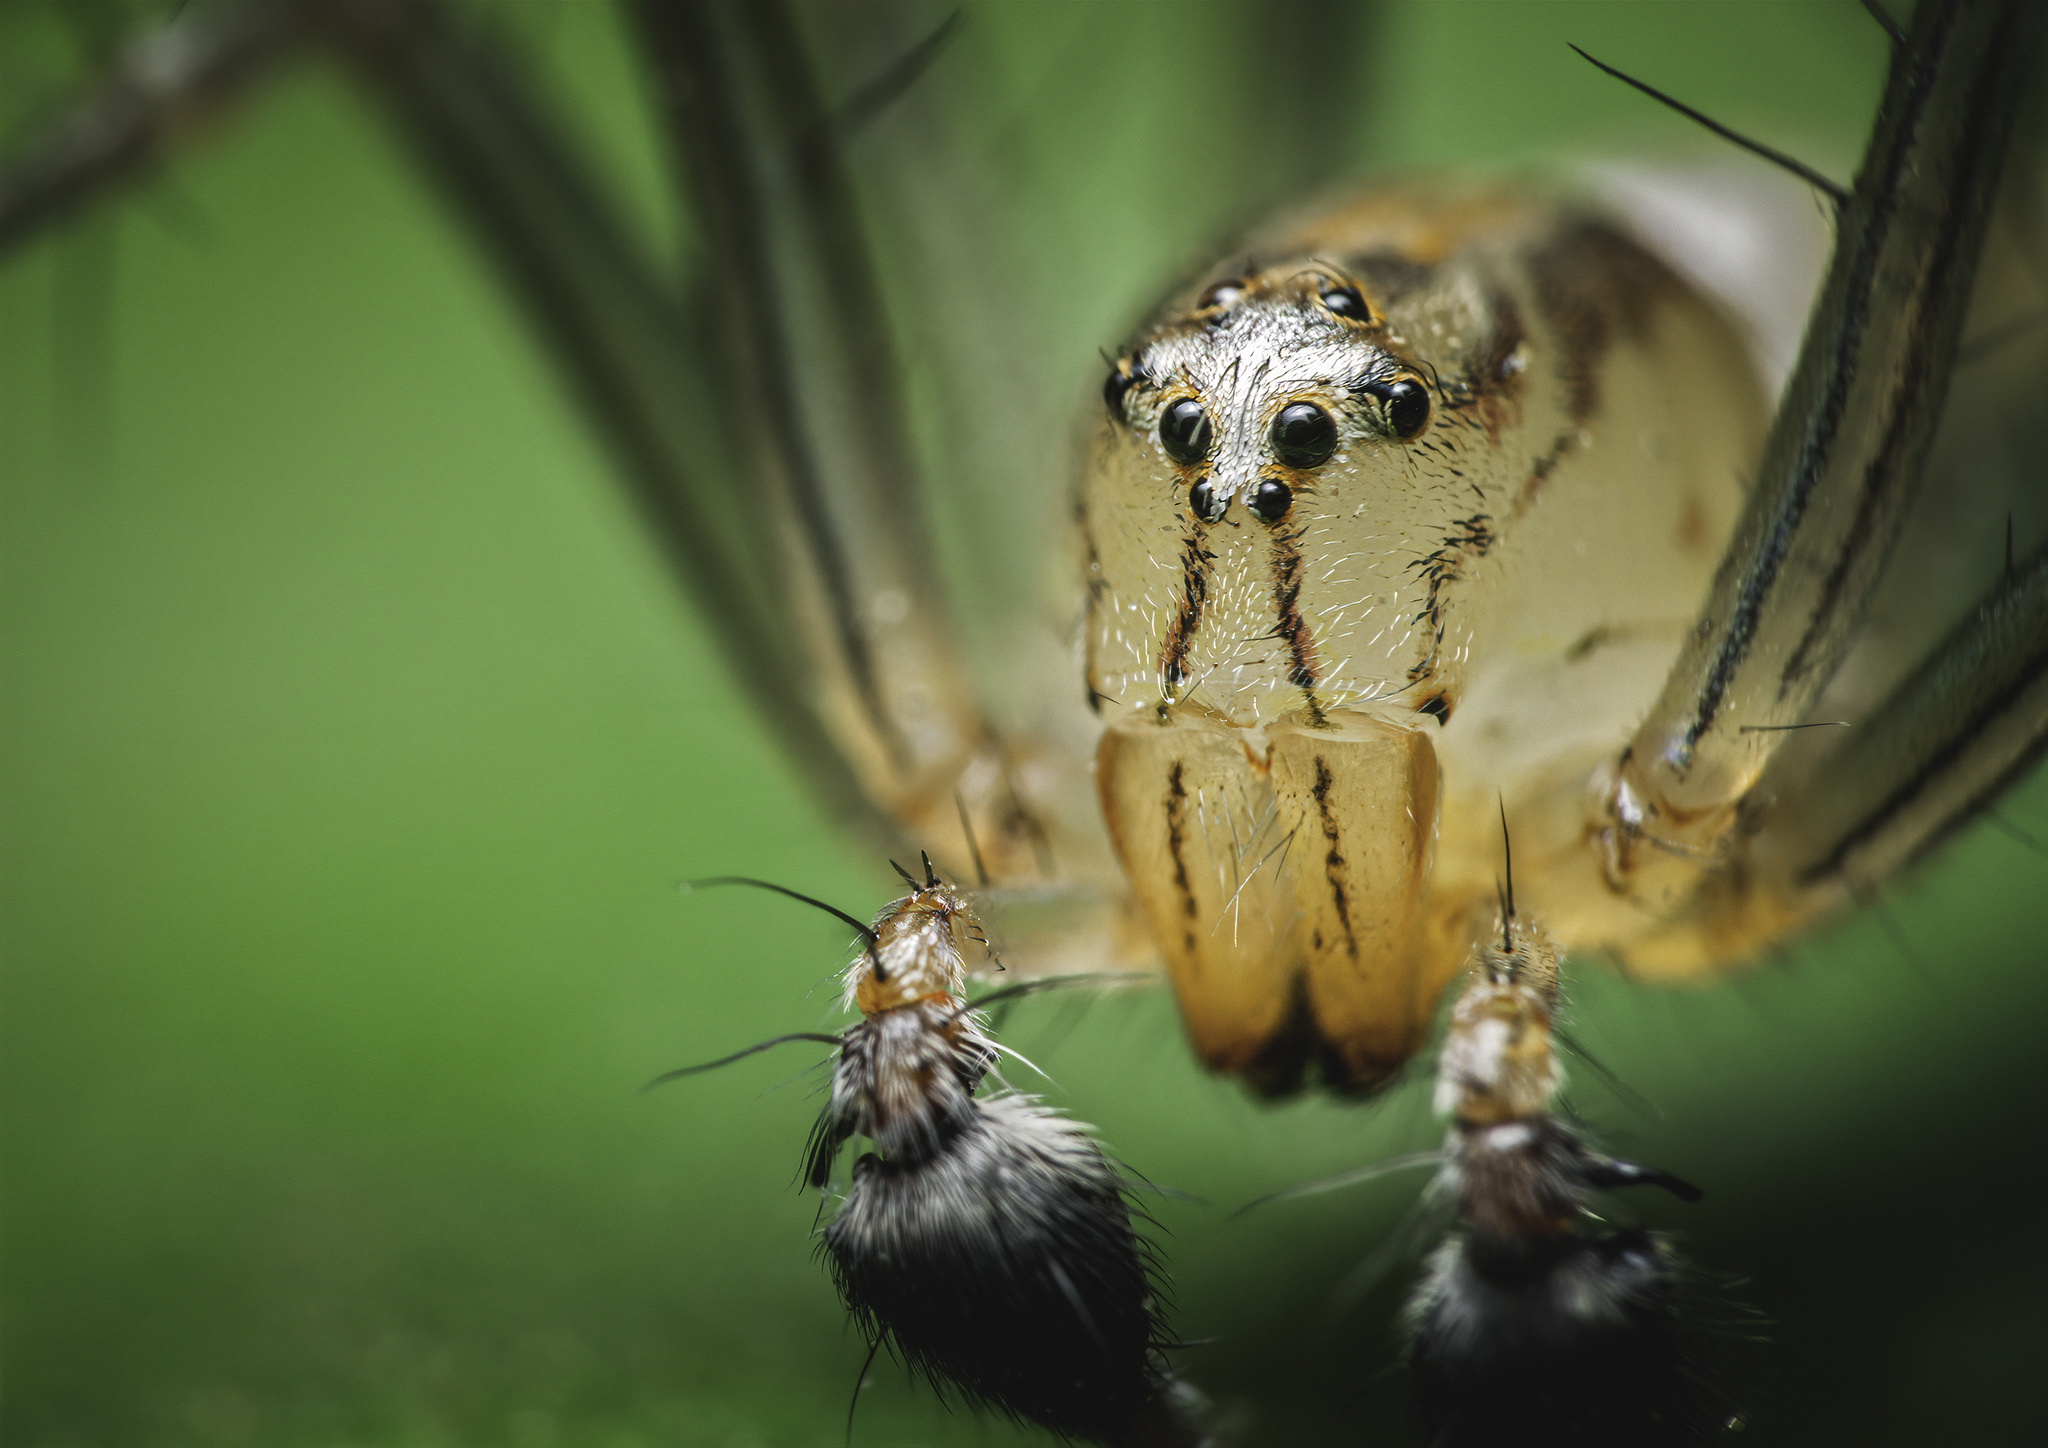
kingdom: Animalia
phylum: Arthropoda
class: Arachnida
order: Araneae
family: Oxyopidae
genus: Oxyopes
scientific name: Oxyopes javanus
